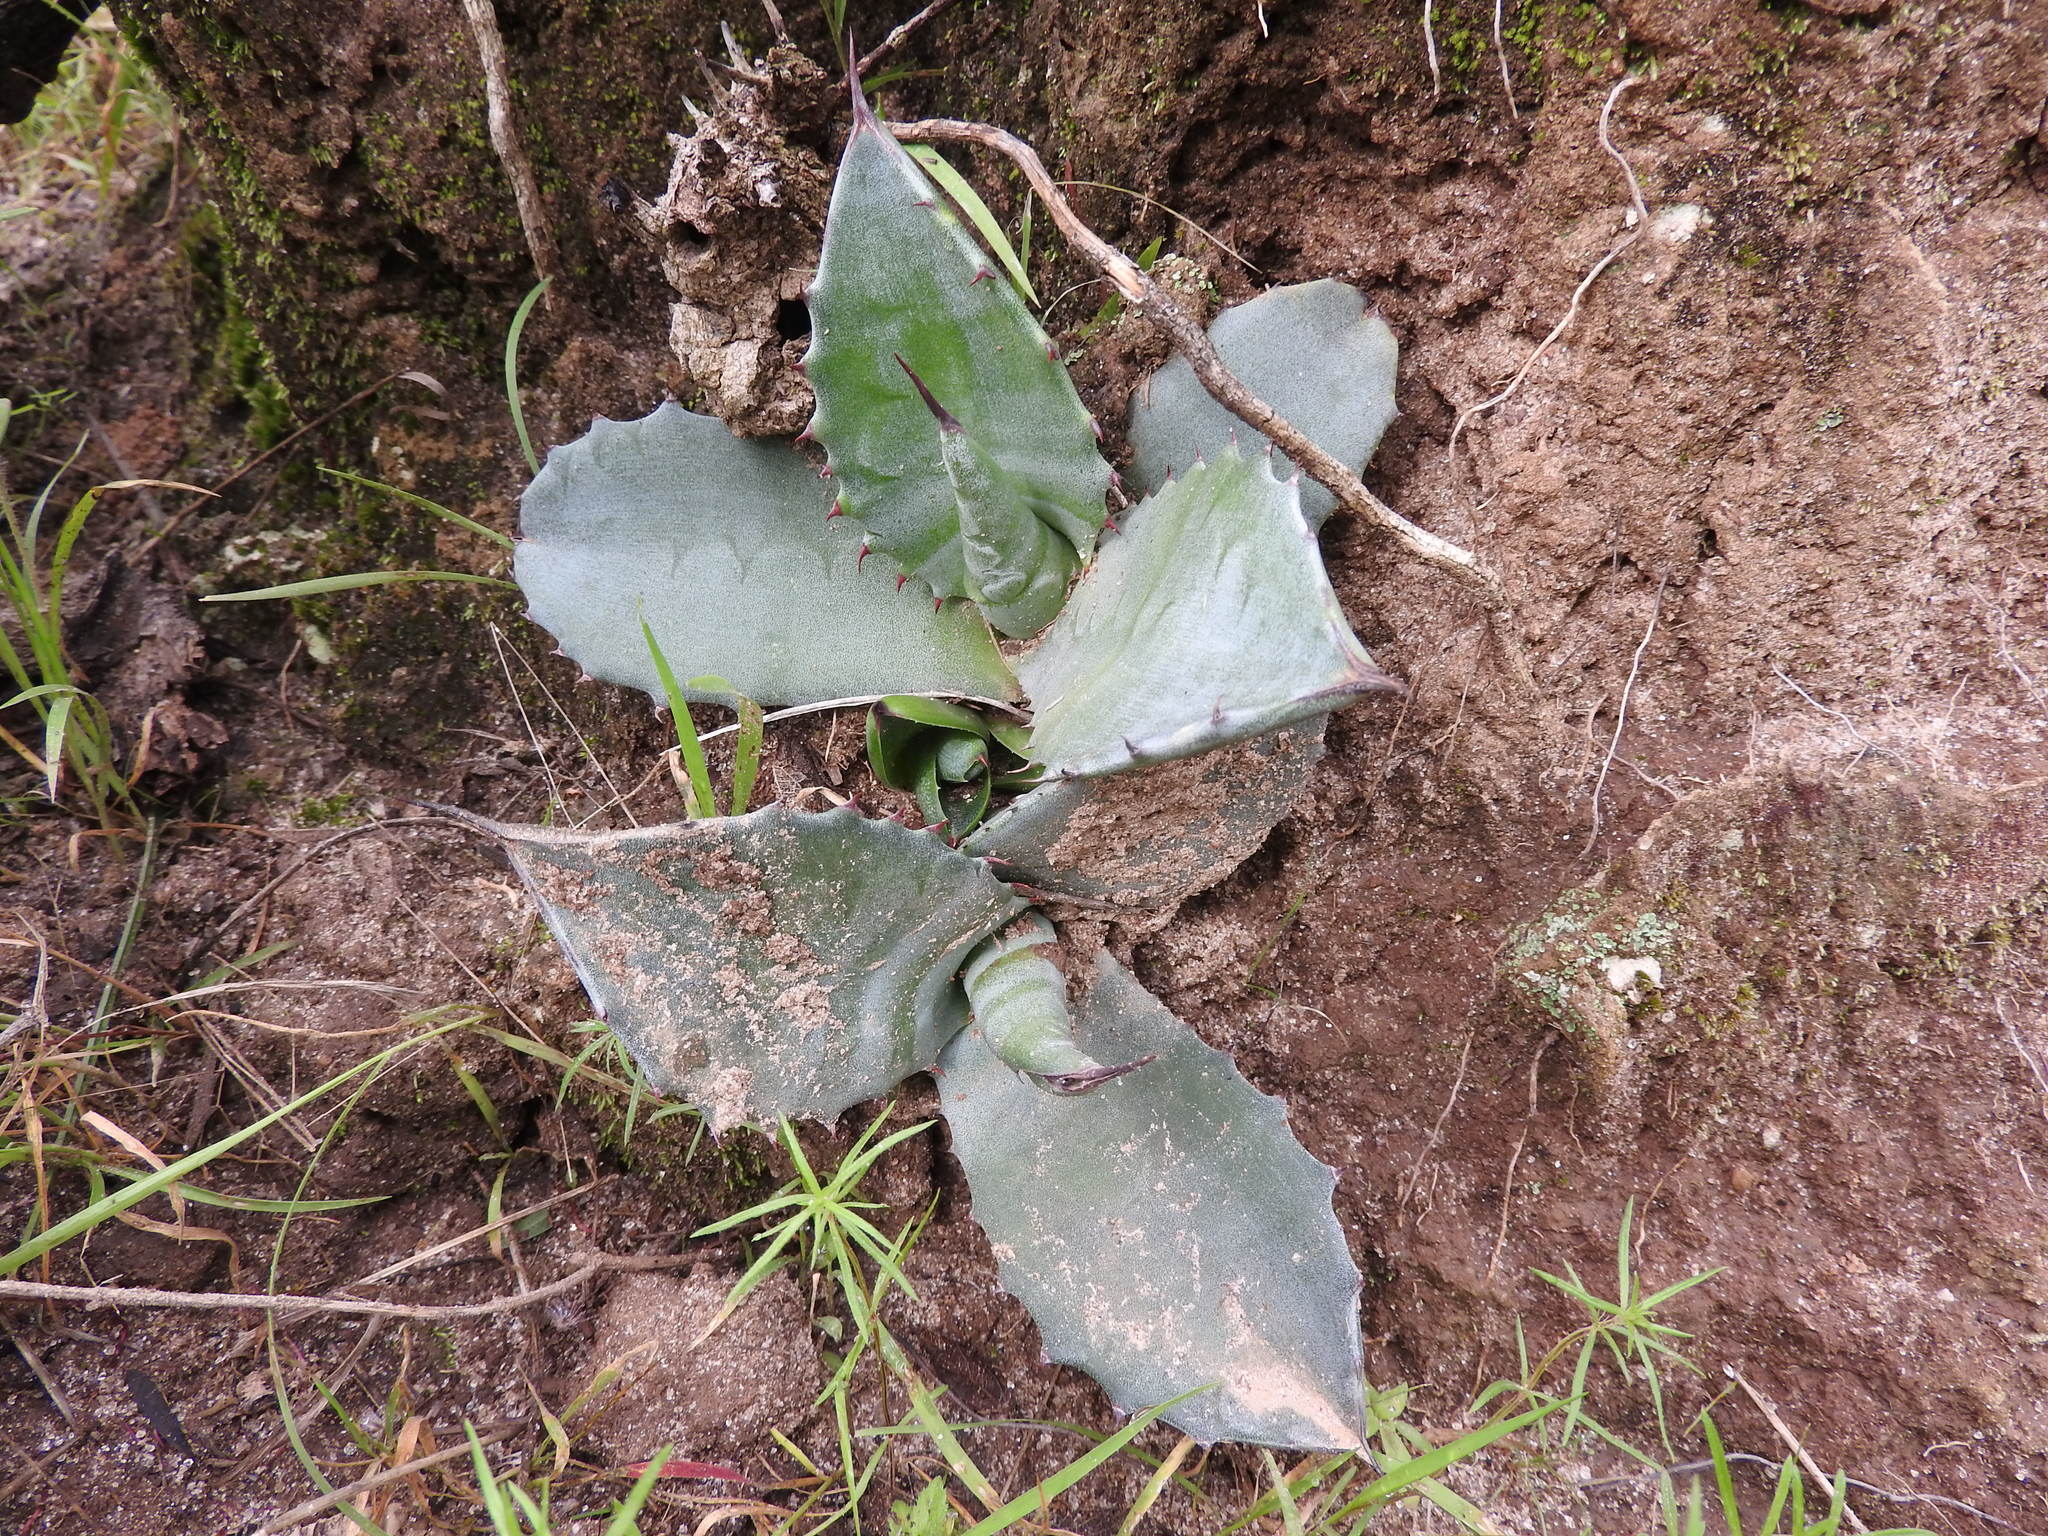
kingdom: Plantae
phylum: Tracheophyta
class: Liliopsida
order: Asparagales
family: Asparagaceae
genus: Agave
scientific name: Agave americana
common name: Centuryplant
